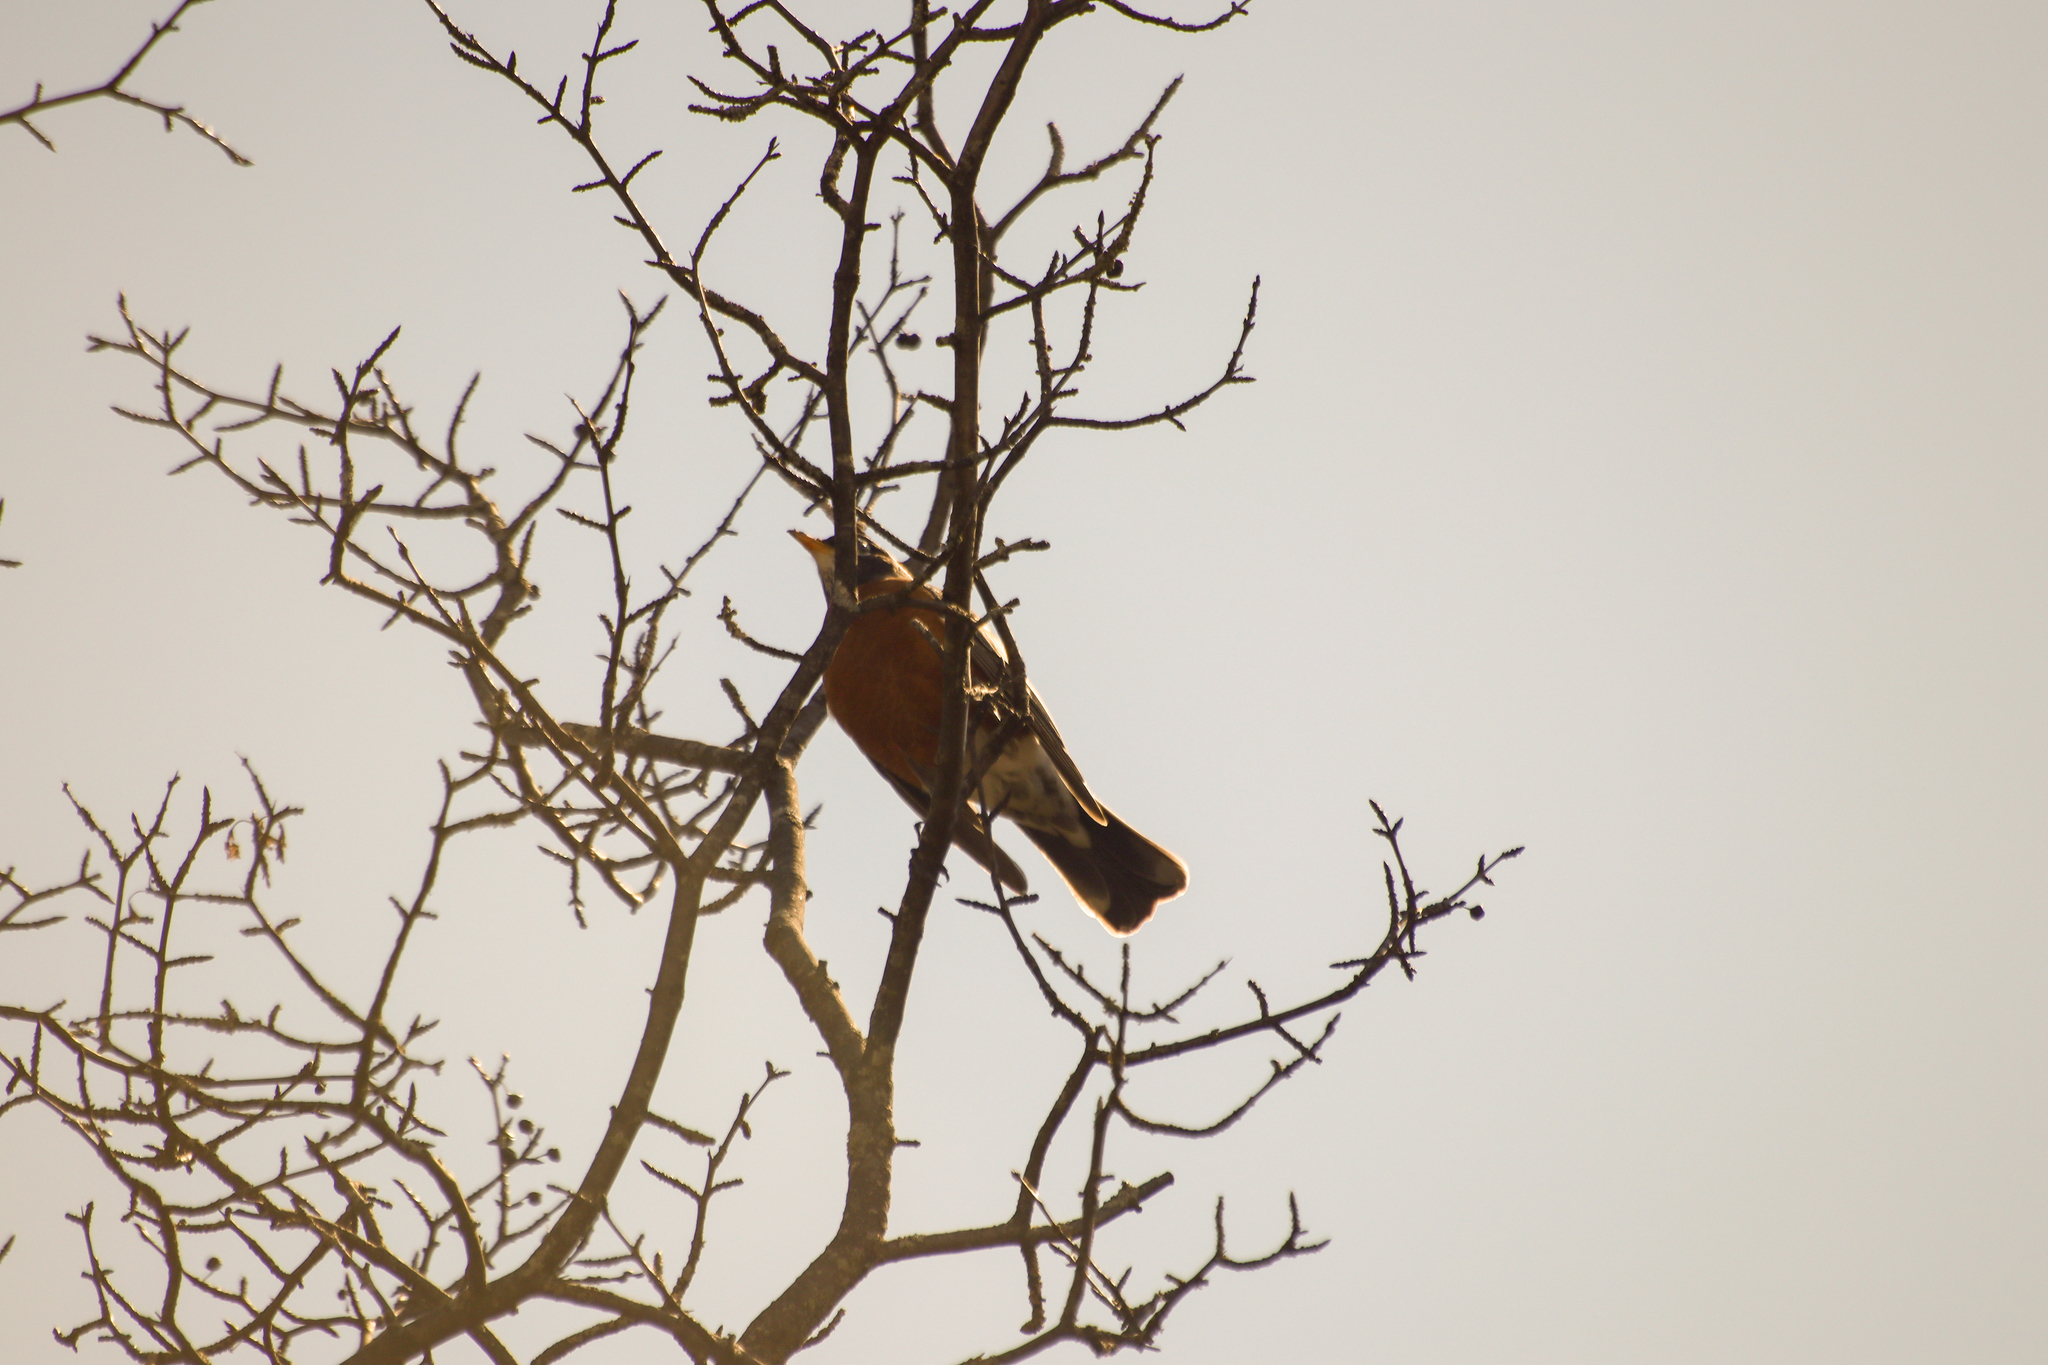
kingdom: Animalia
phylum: Chordata
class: Aves
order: Passeriformes
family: Turdidae
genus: Turdus
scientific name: Turdus migratorius
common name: American robin
